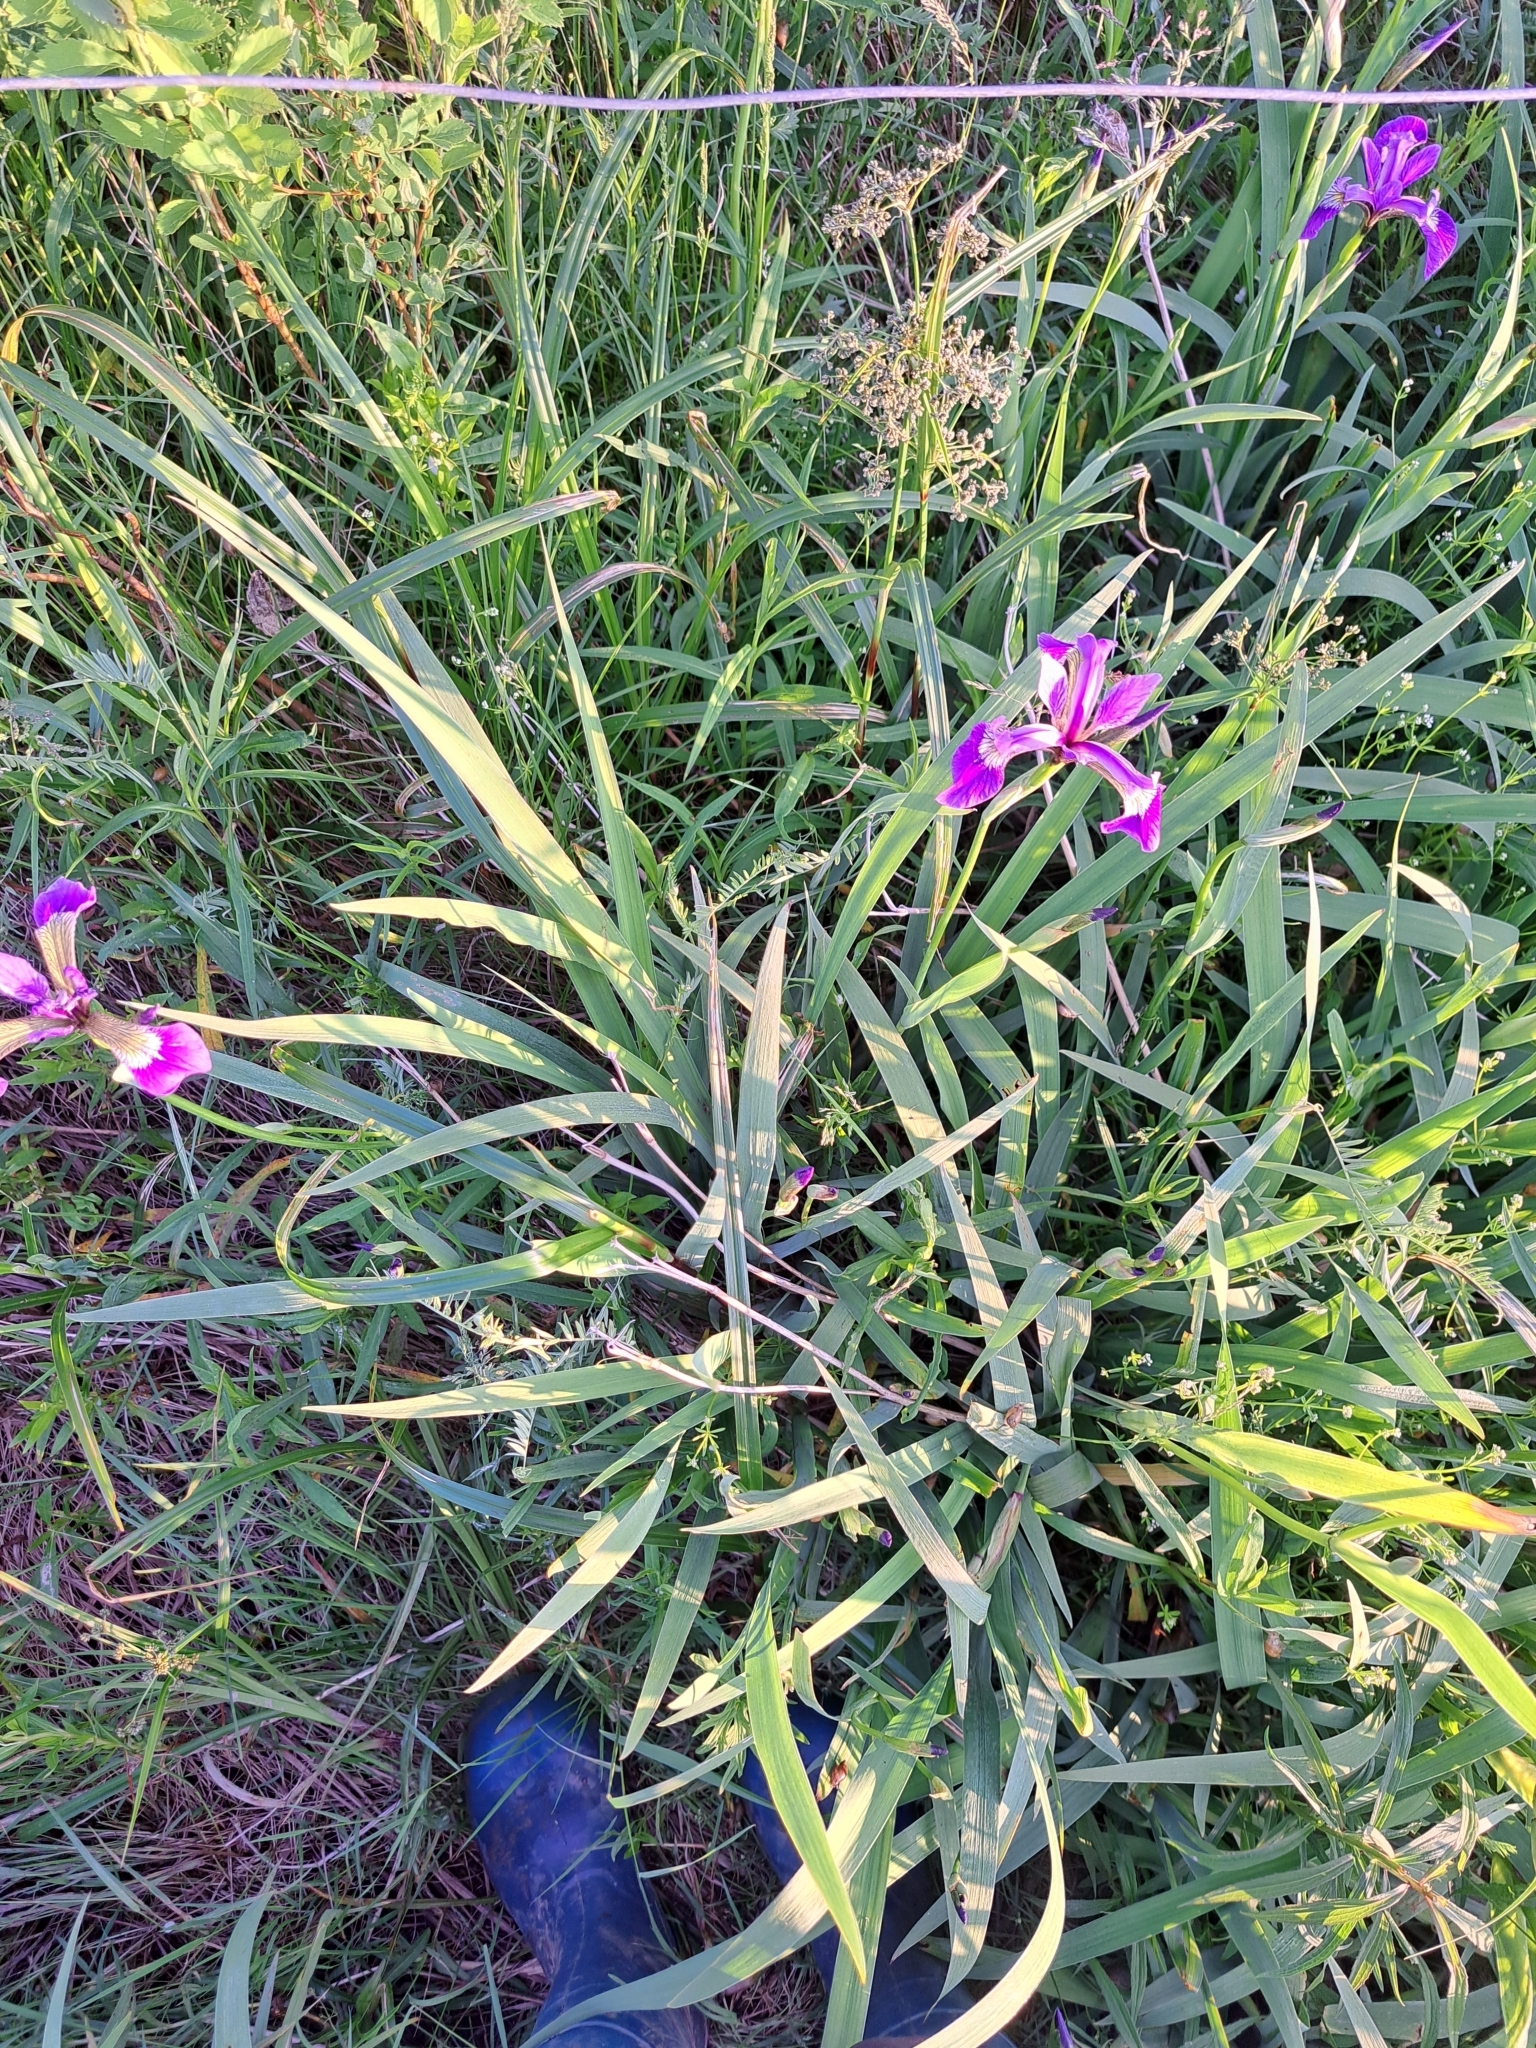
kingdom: Plantae
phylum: Tracheophyta
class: Liliopsida
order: Asparagales
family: Iridaceae
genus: Iris
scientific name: Iris versicolor
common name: Purple iris
